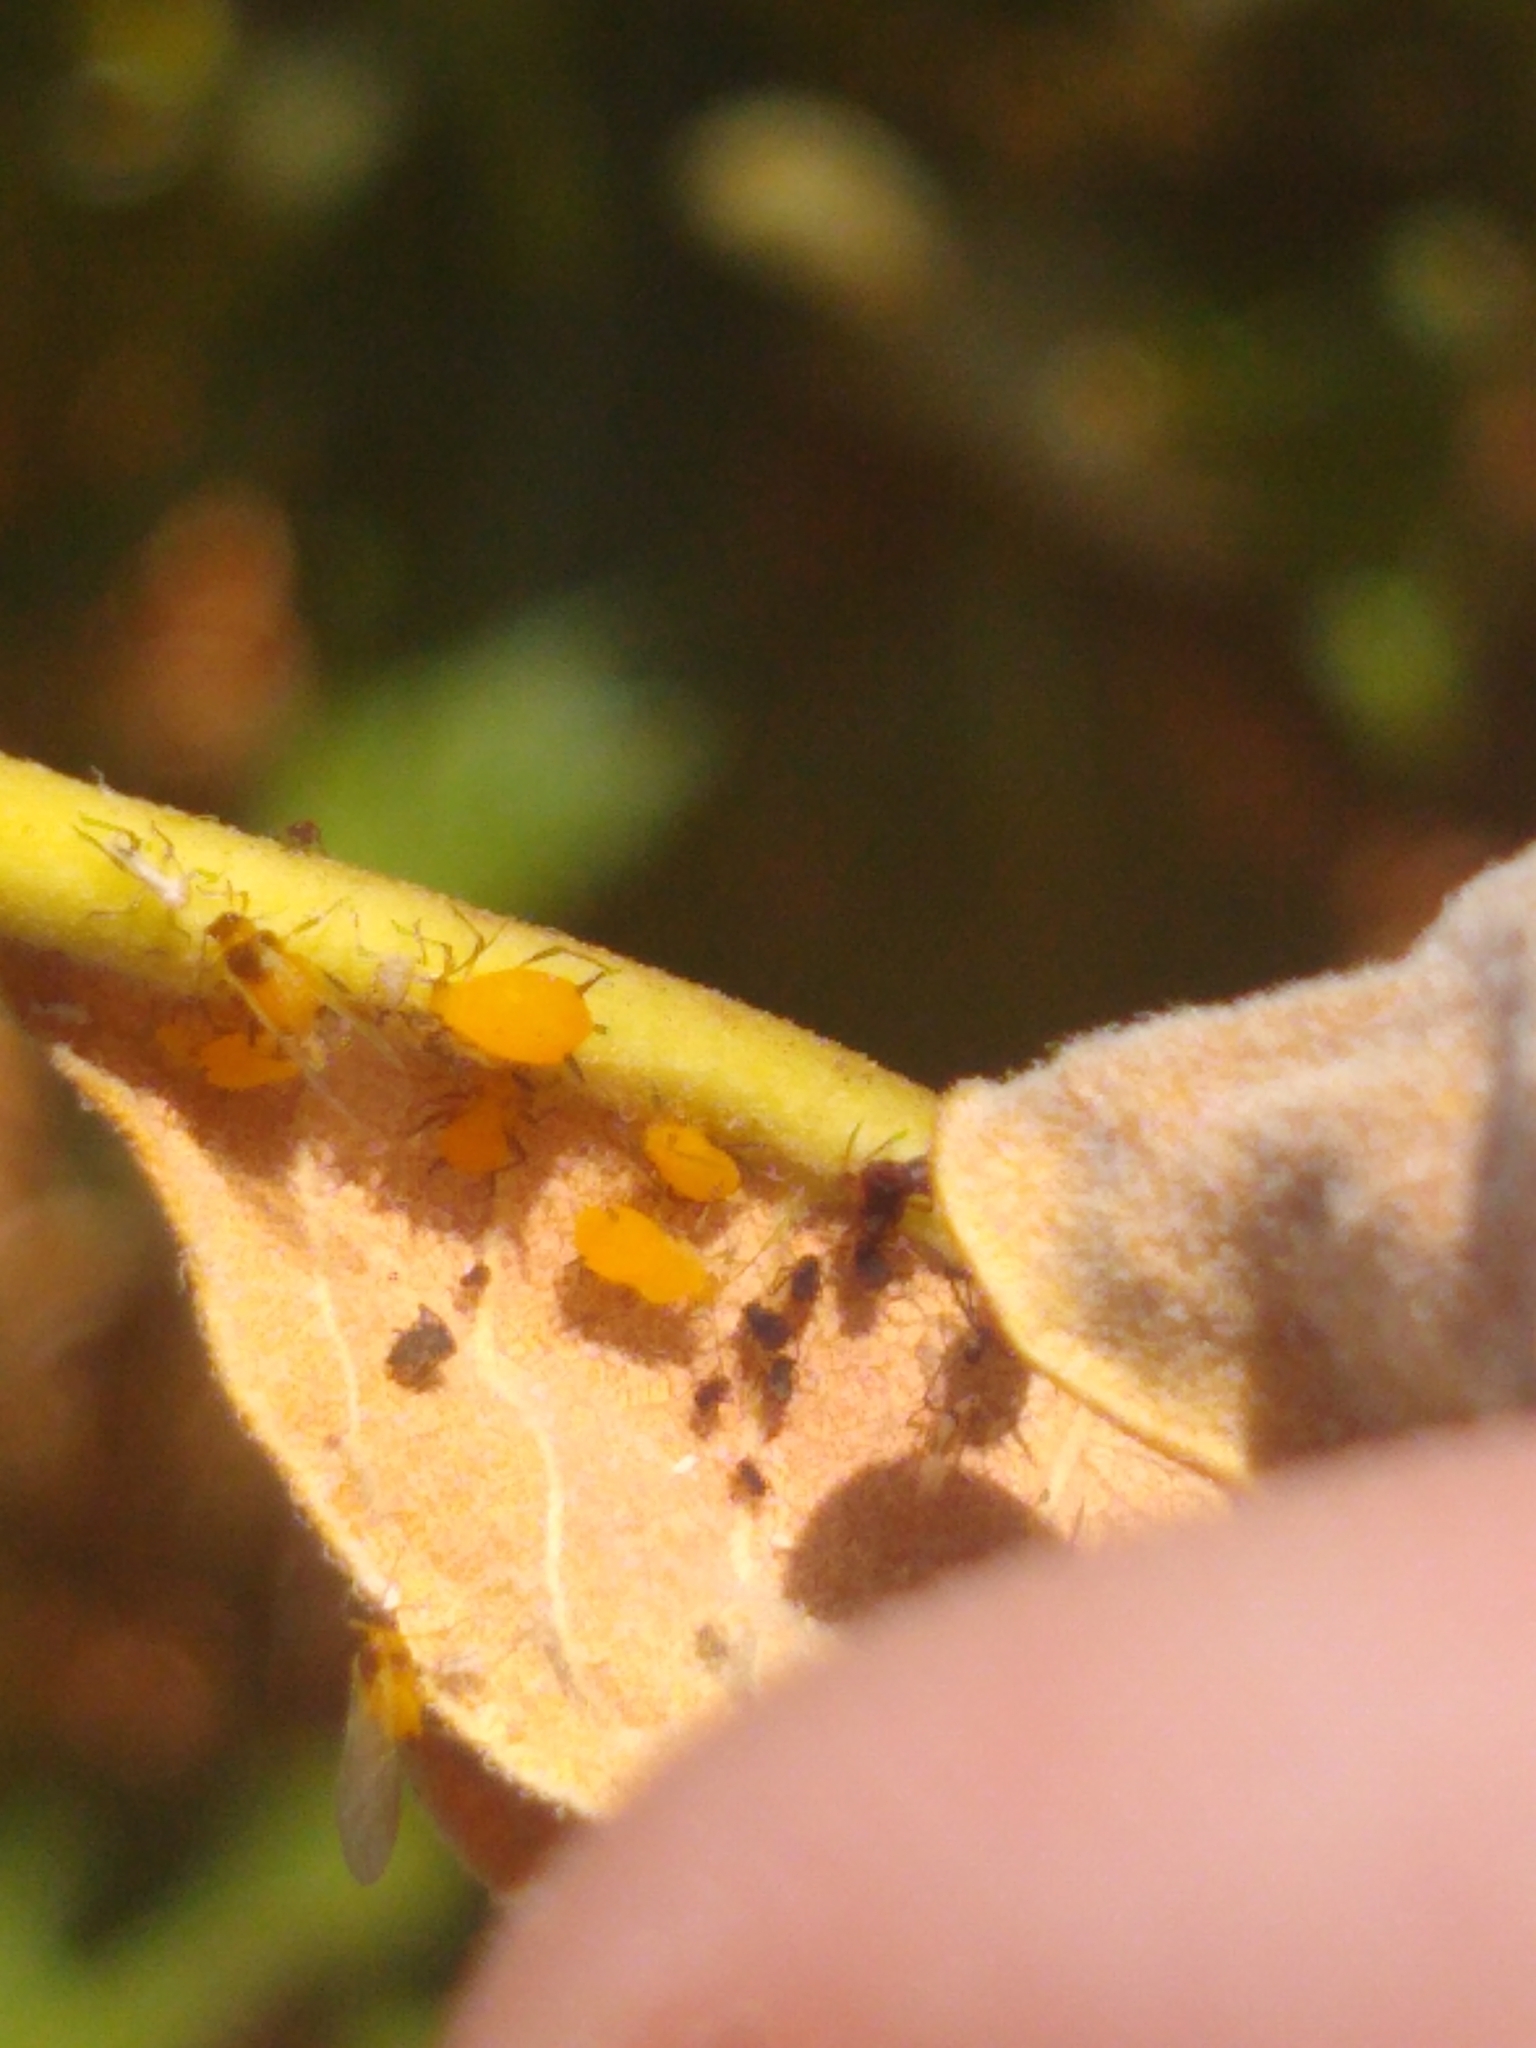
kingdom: Animalia
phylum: Arthropoda
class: Insecta
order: Hemiptera
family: Aphididae
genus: Aphis
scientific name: Aphis nerii
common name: Oleander aphid
